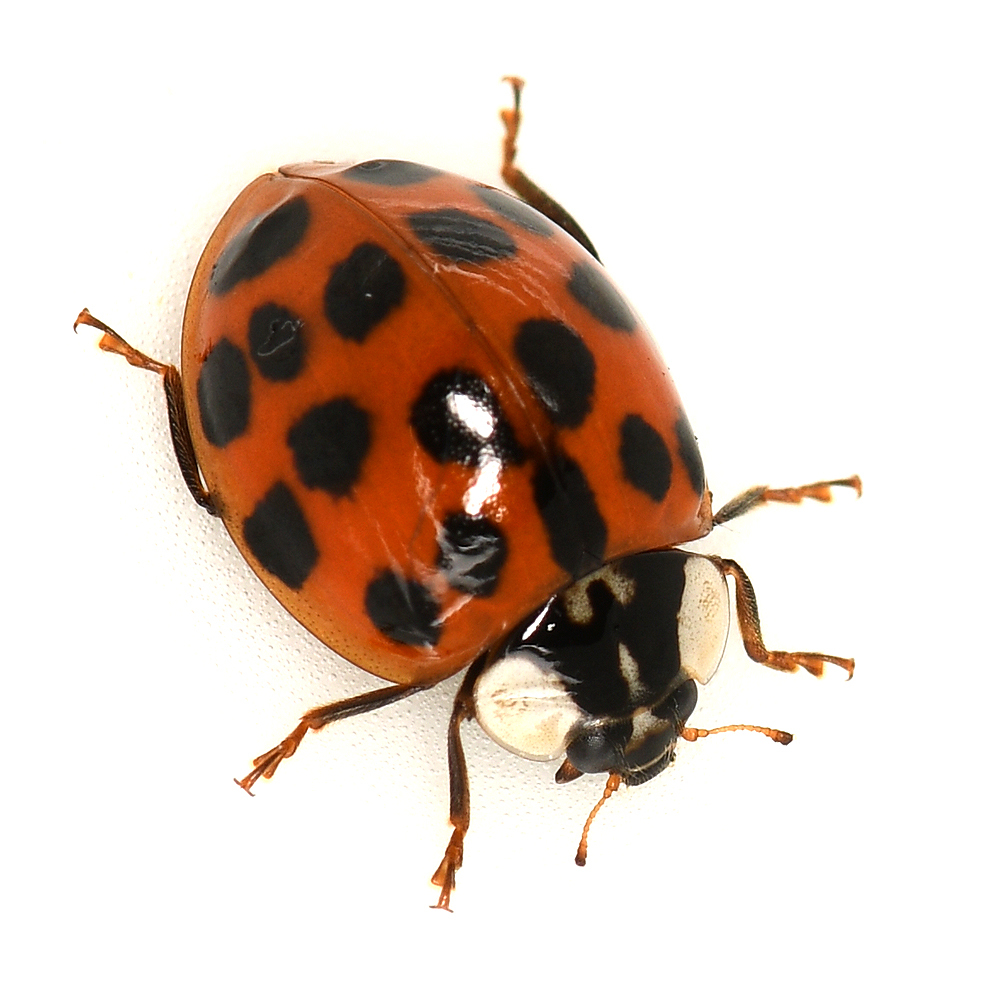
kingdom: Animalia
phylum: Arthropoda
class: Insecta
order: Coleoptera
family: Coccinellidae
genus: Harmonia
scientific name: Harmonia axyridis
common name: Harlequin ladybird
